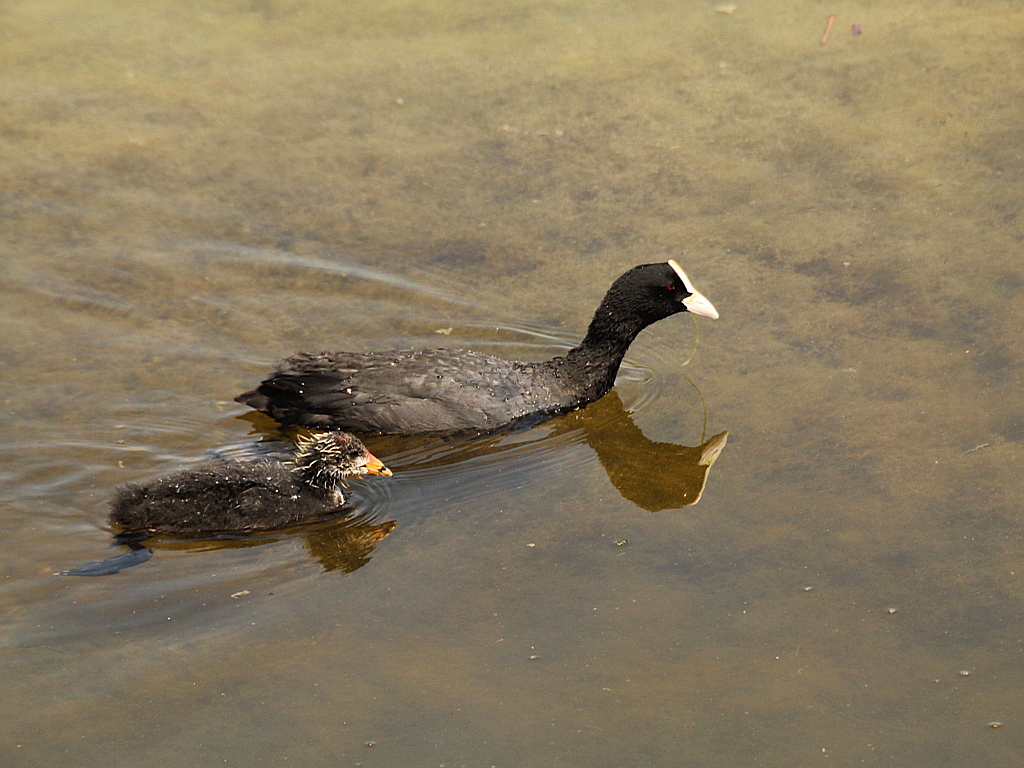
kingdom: Animalia
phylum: Chordata
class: Aves
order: Gruiformes
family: Rallidae
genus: Fulica
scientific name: Fulica atra
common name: Eurasian coot
